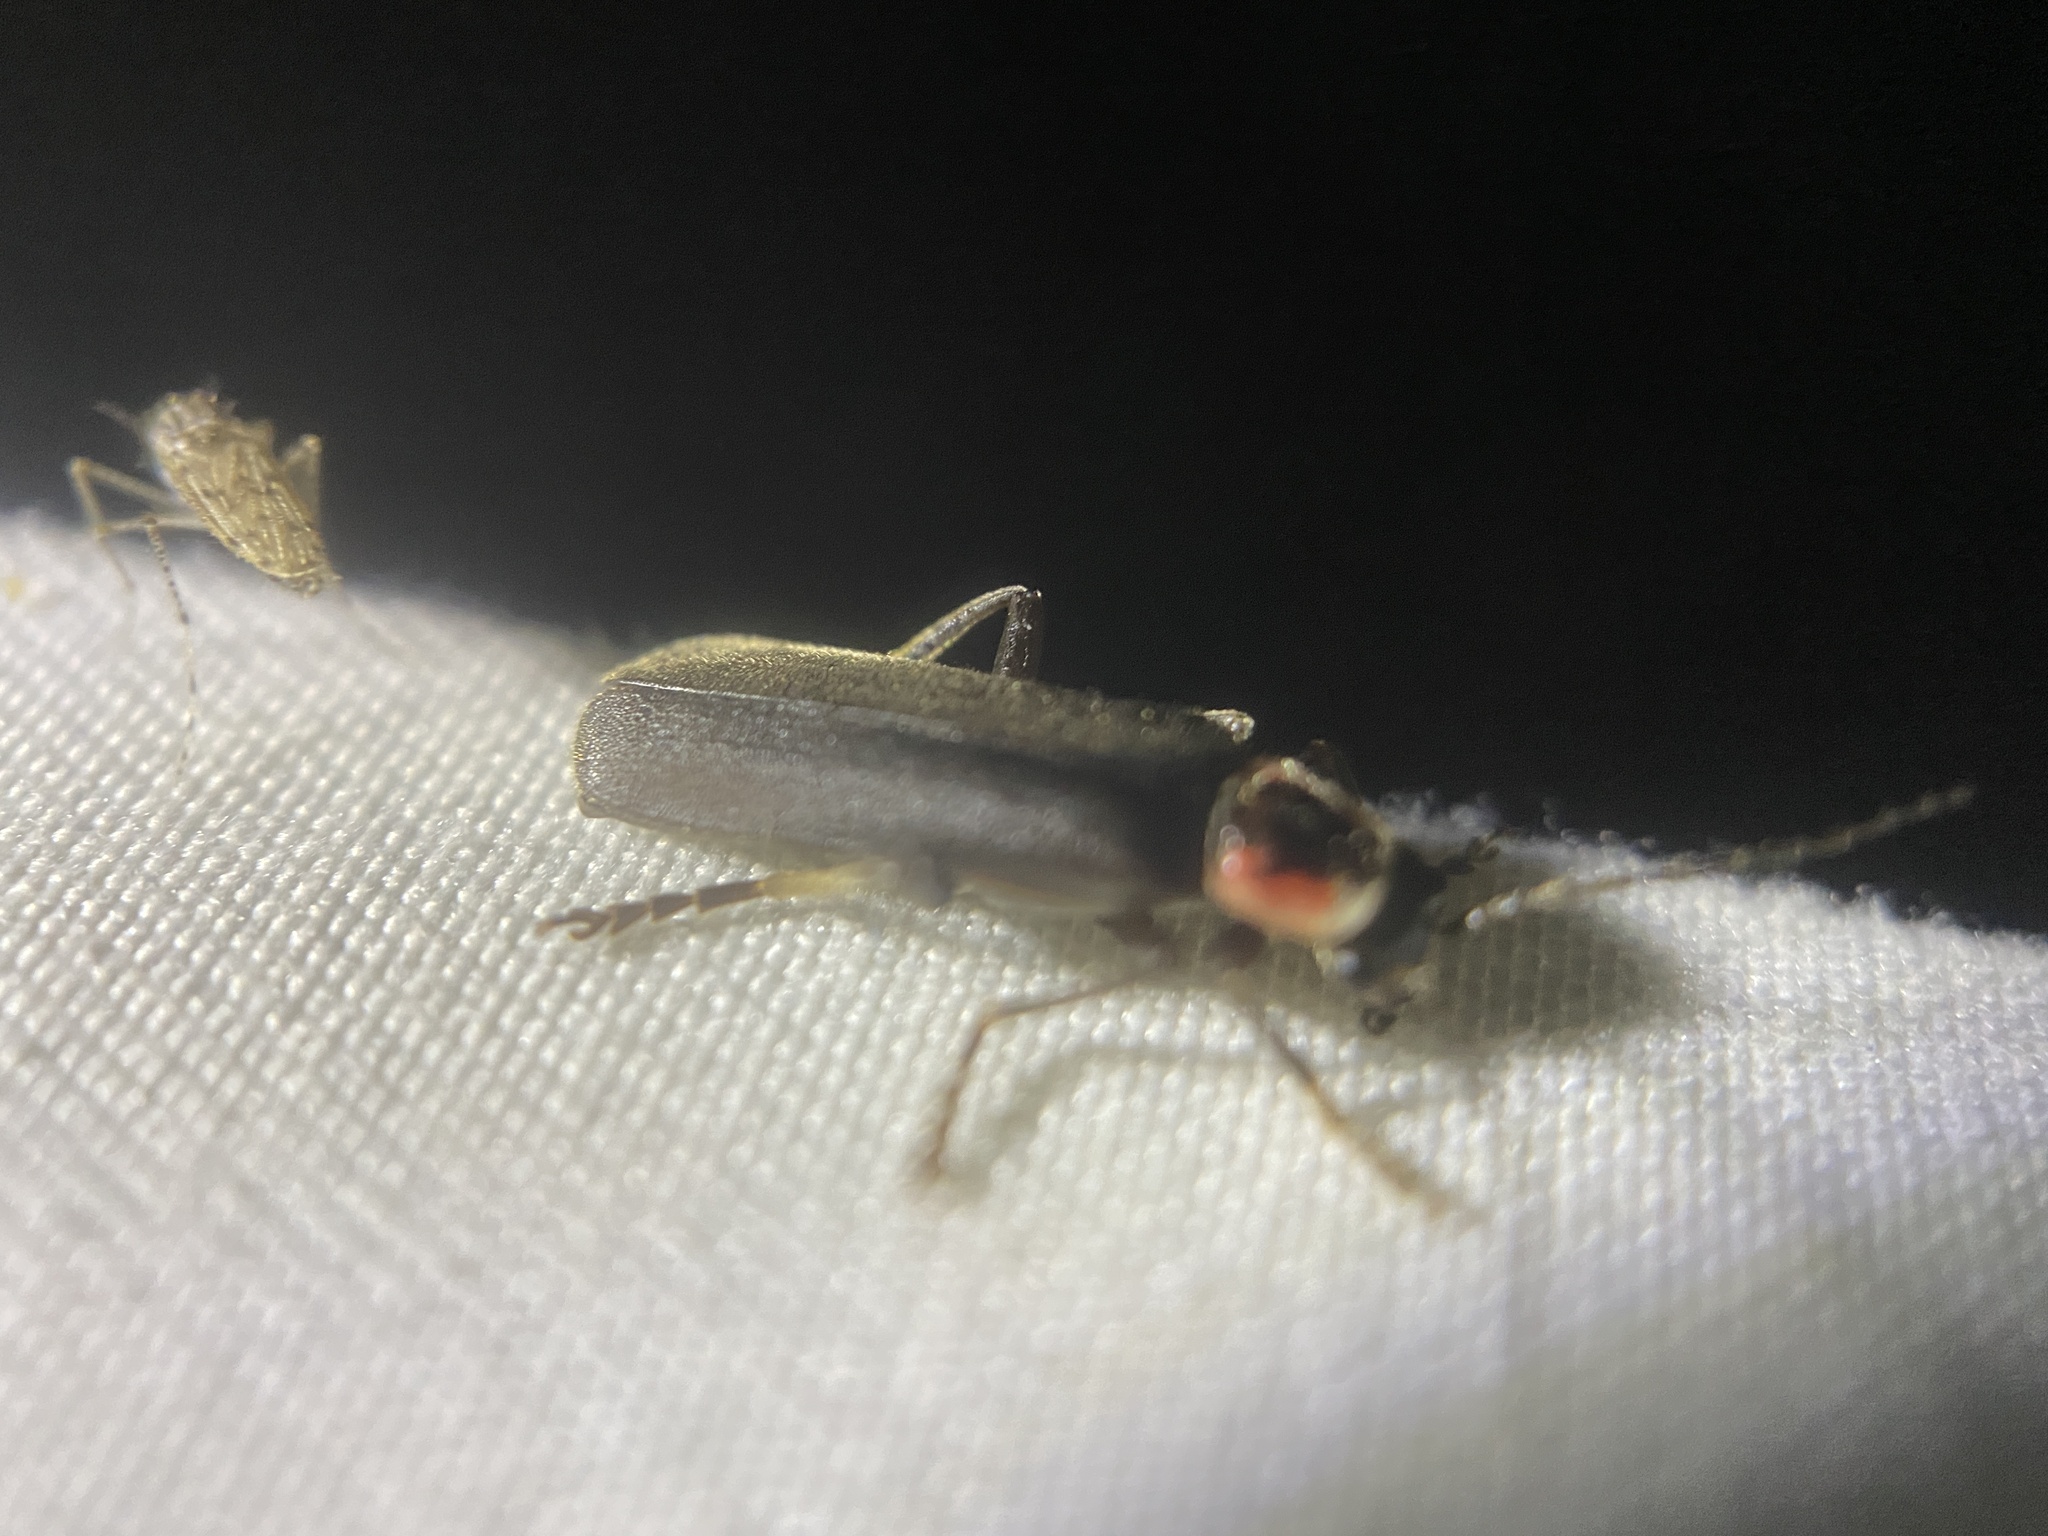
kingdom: Animalia
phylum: Arthropoda
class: Insecta
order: Coleoptera
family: Cantharidae
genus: Rhaxonycha
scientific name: Rhaxonycha bilobata
